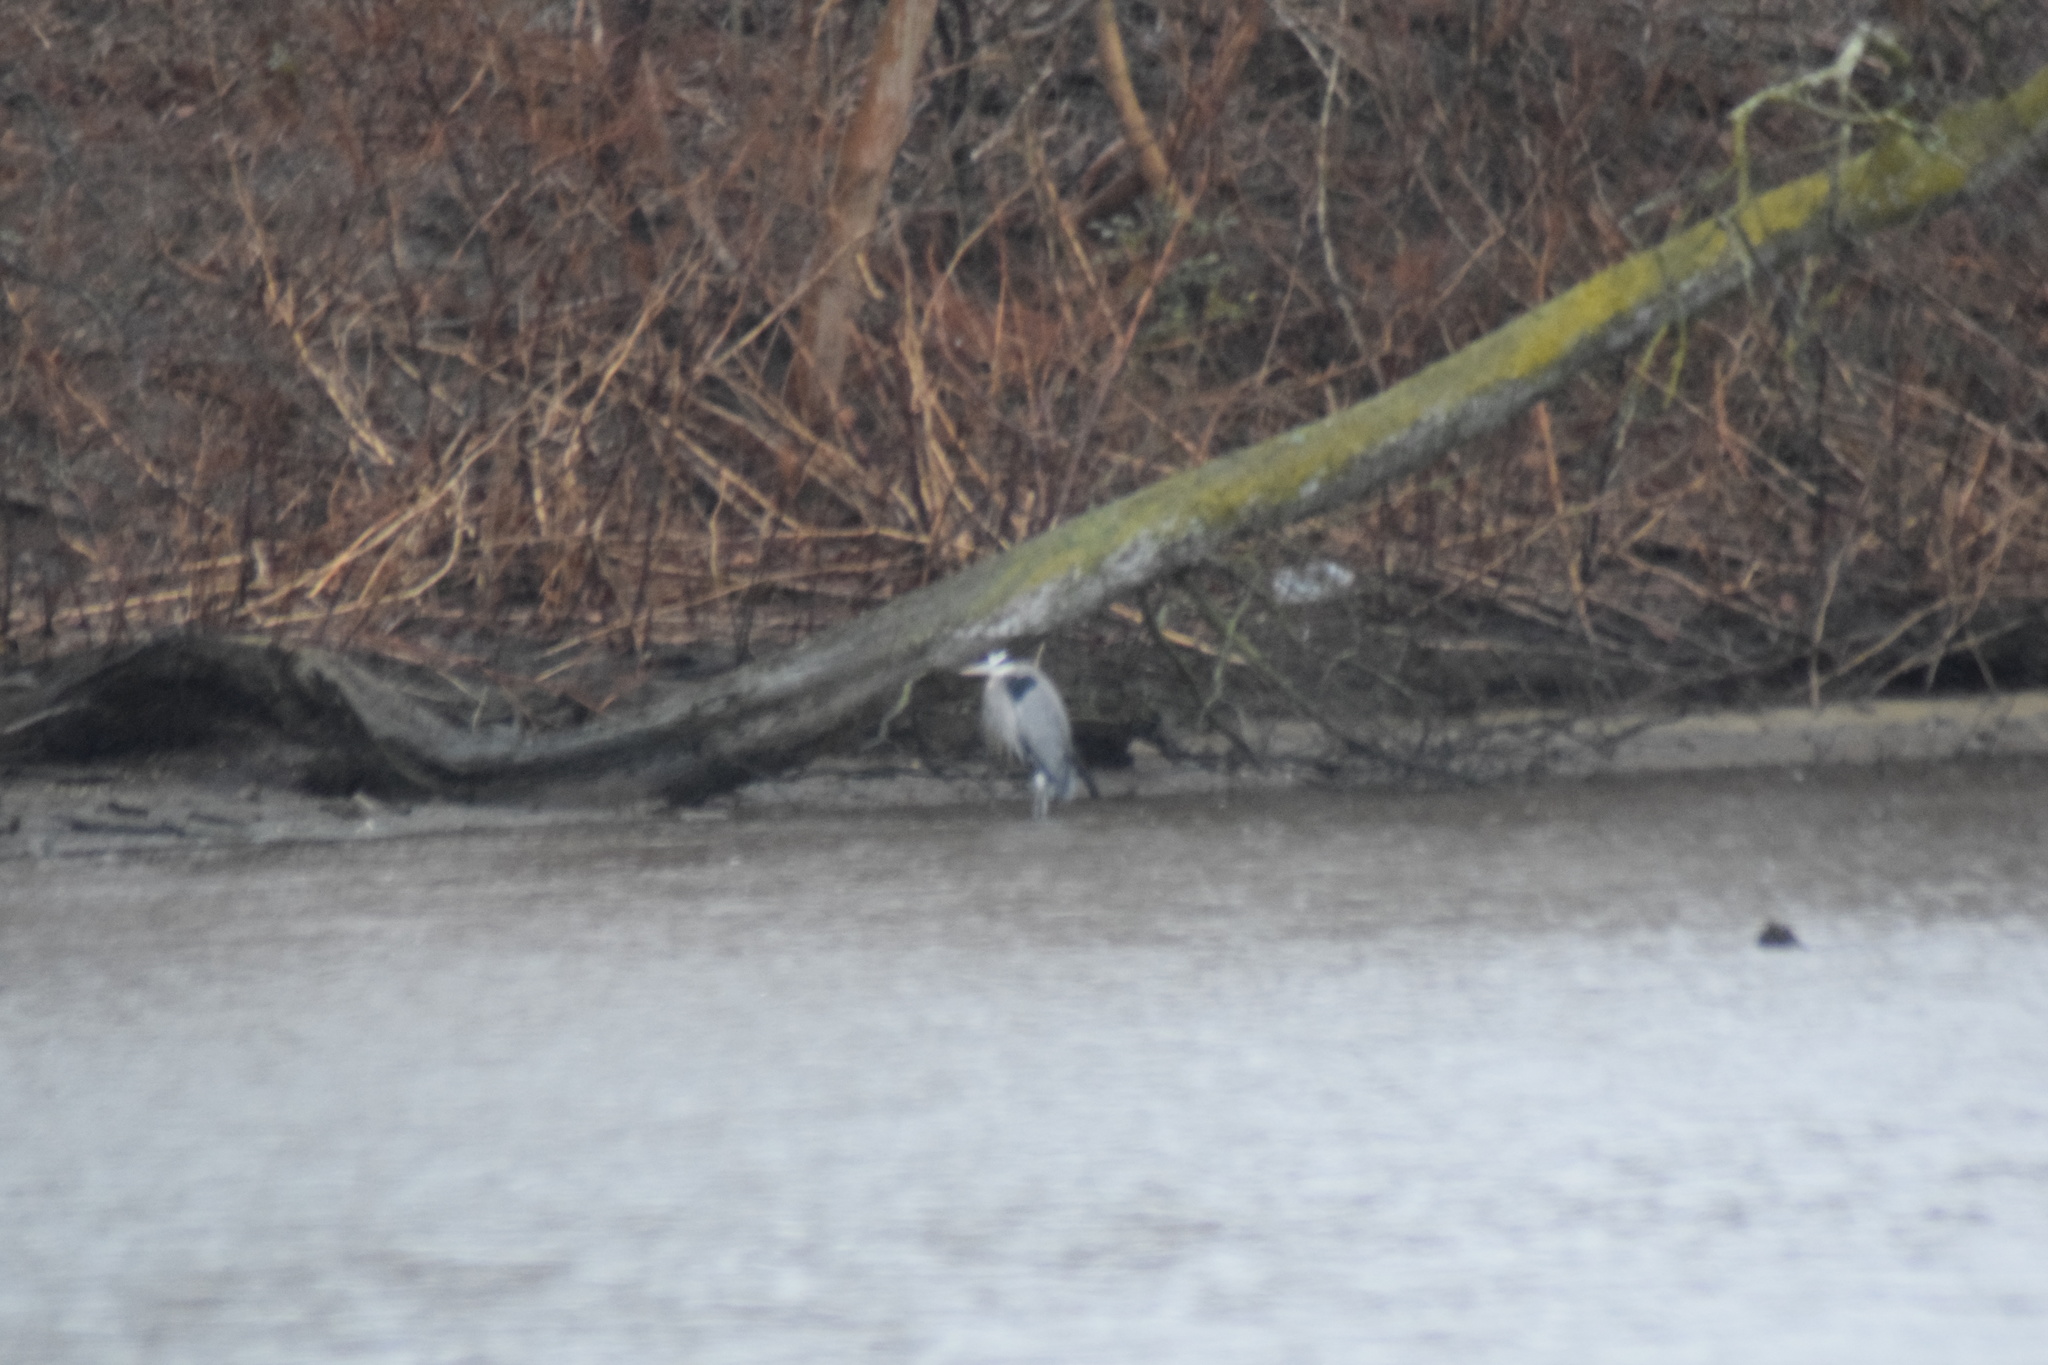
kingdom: Animalia
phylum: Chordata
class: Aves
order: Pelecaniformes
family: Ardeidae
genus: Ardea
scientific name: Ardea herodias
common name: Great blue heron
